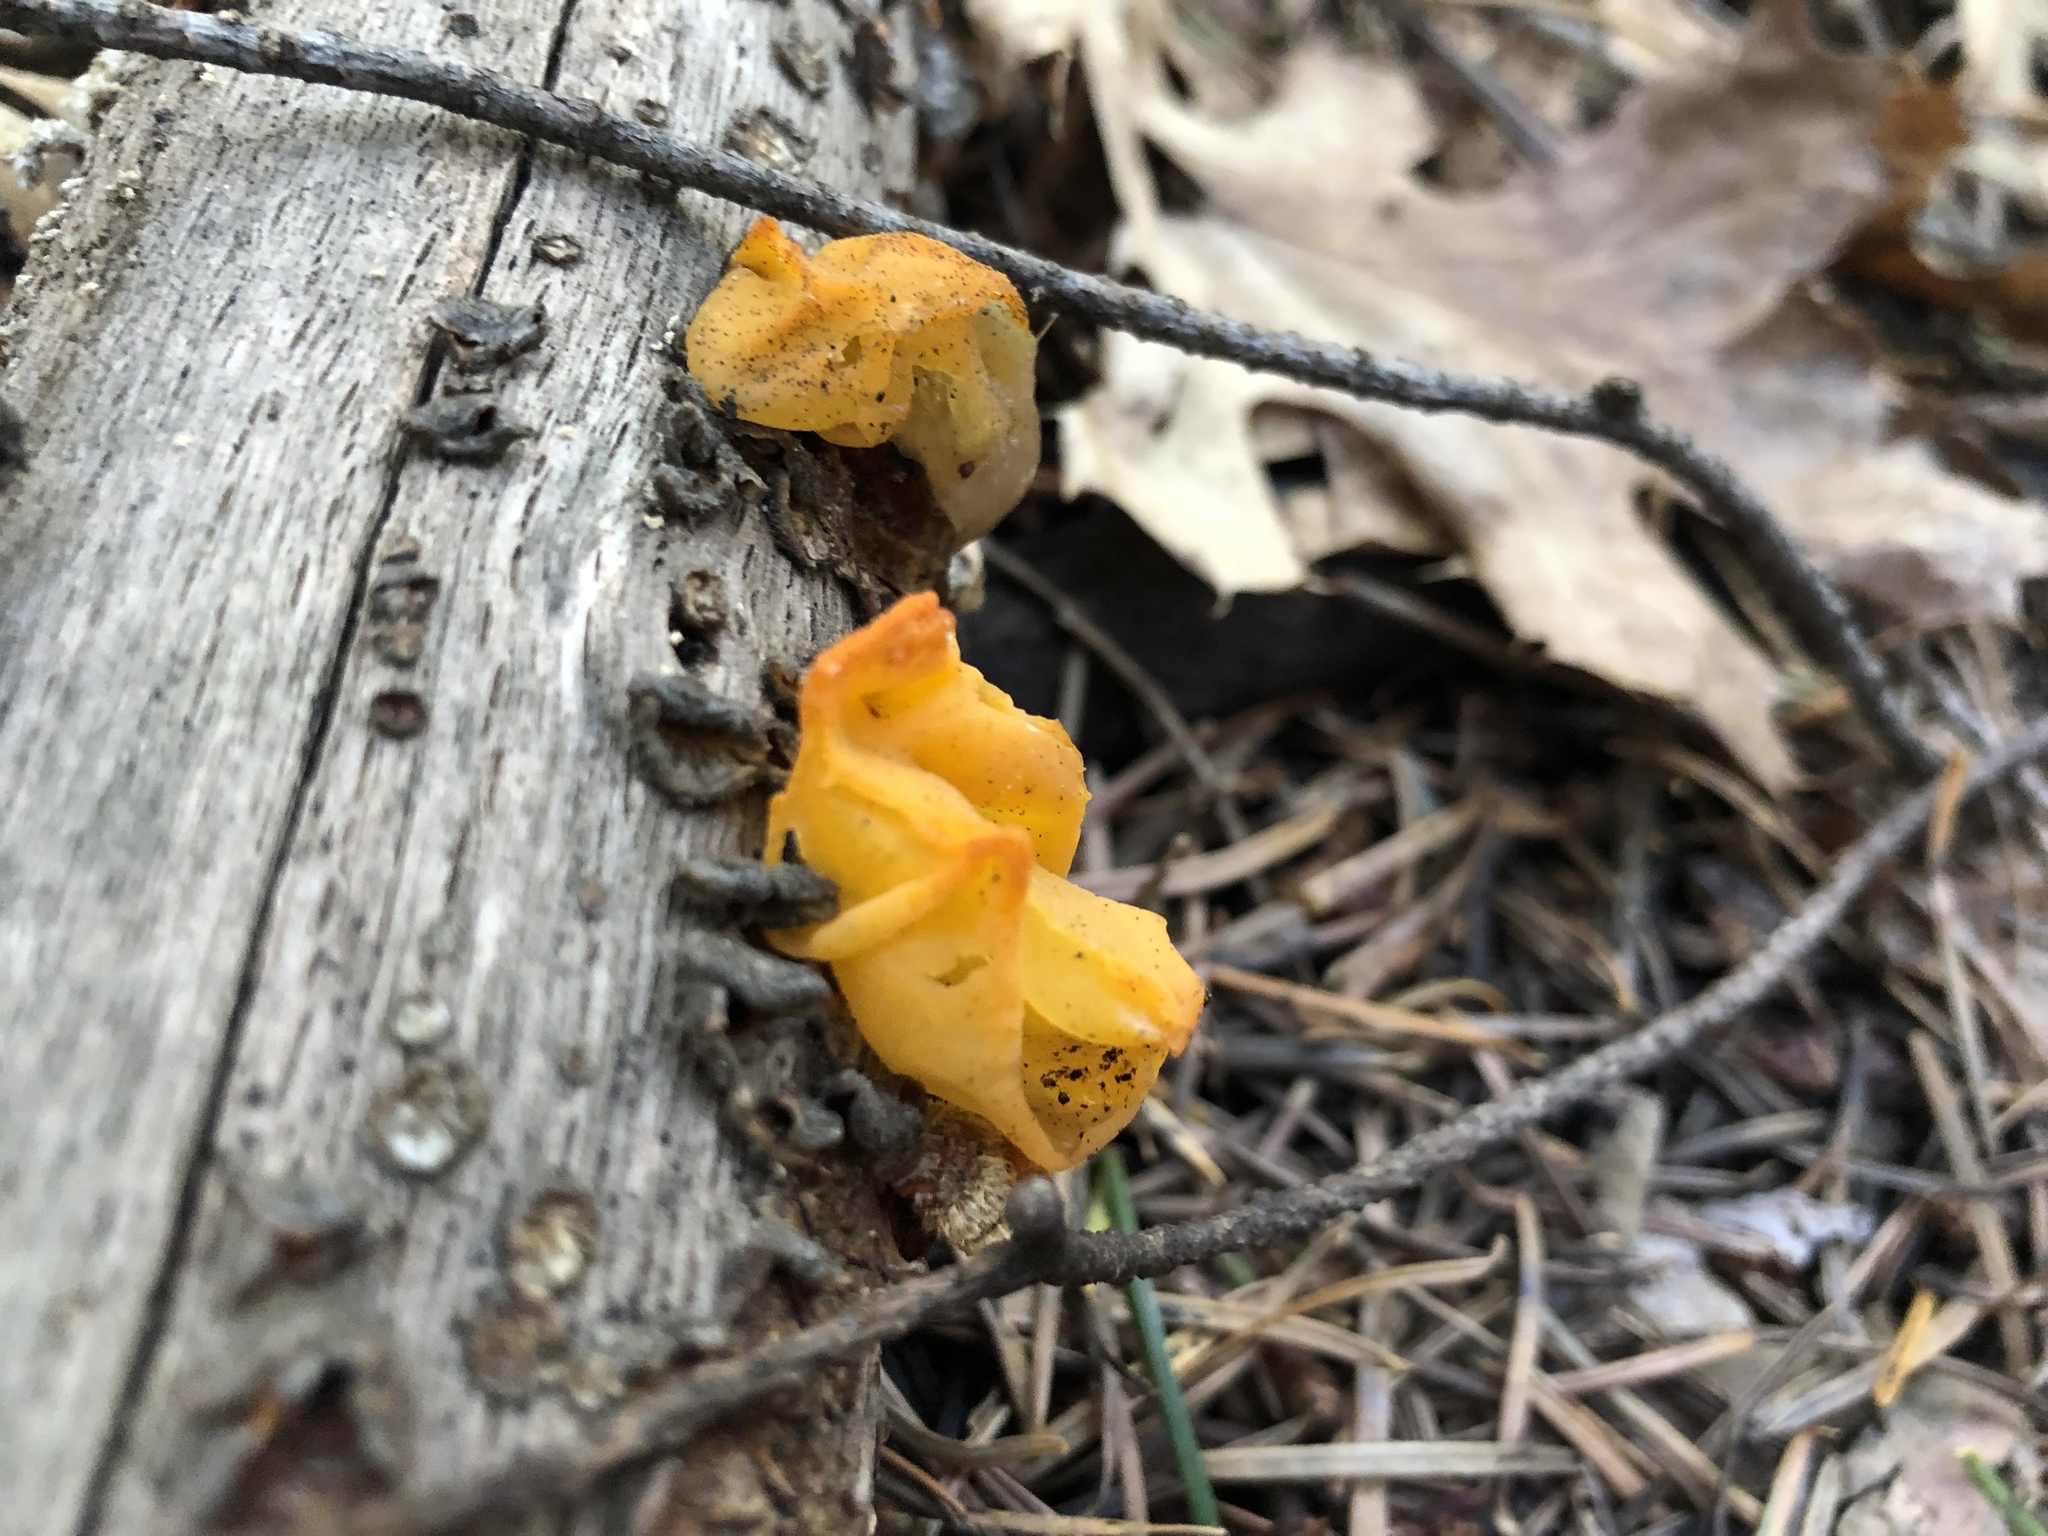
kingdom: Fungi
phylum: Basidiomycota
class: Tremellomycetes
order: Tremellales
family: Naemateliaceae
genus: Naematelia
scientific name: Naematelia aurantia
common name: Golden ear
